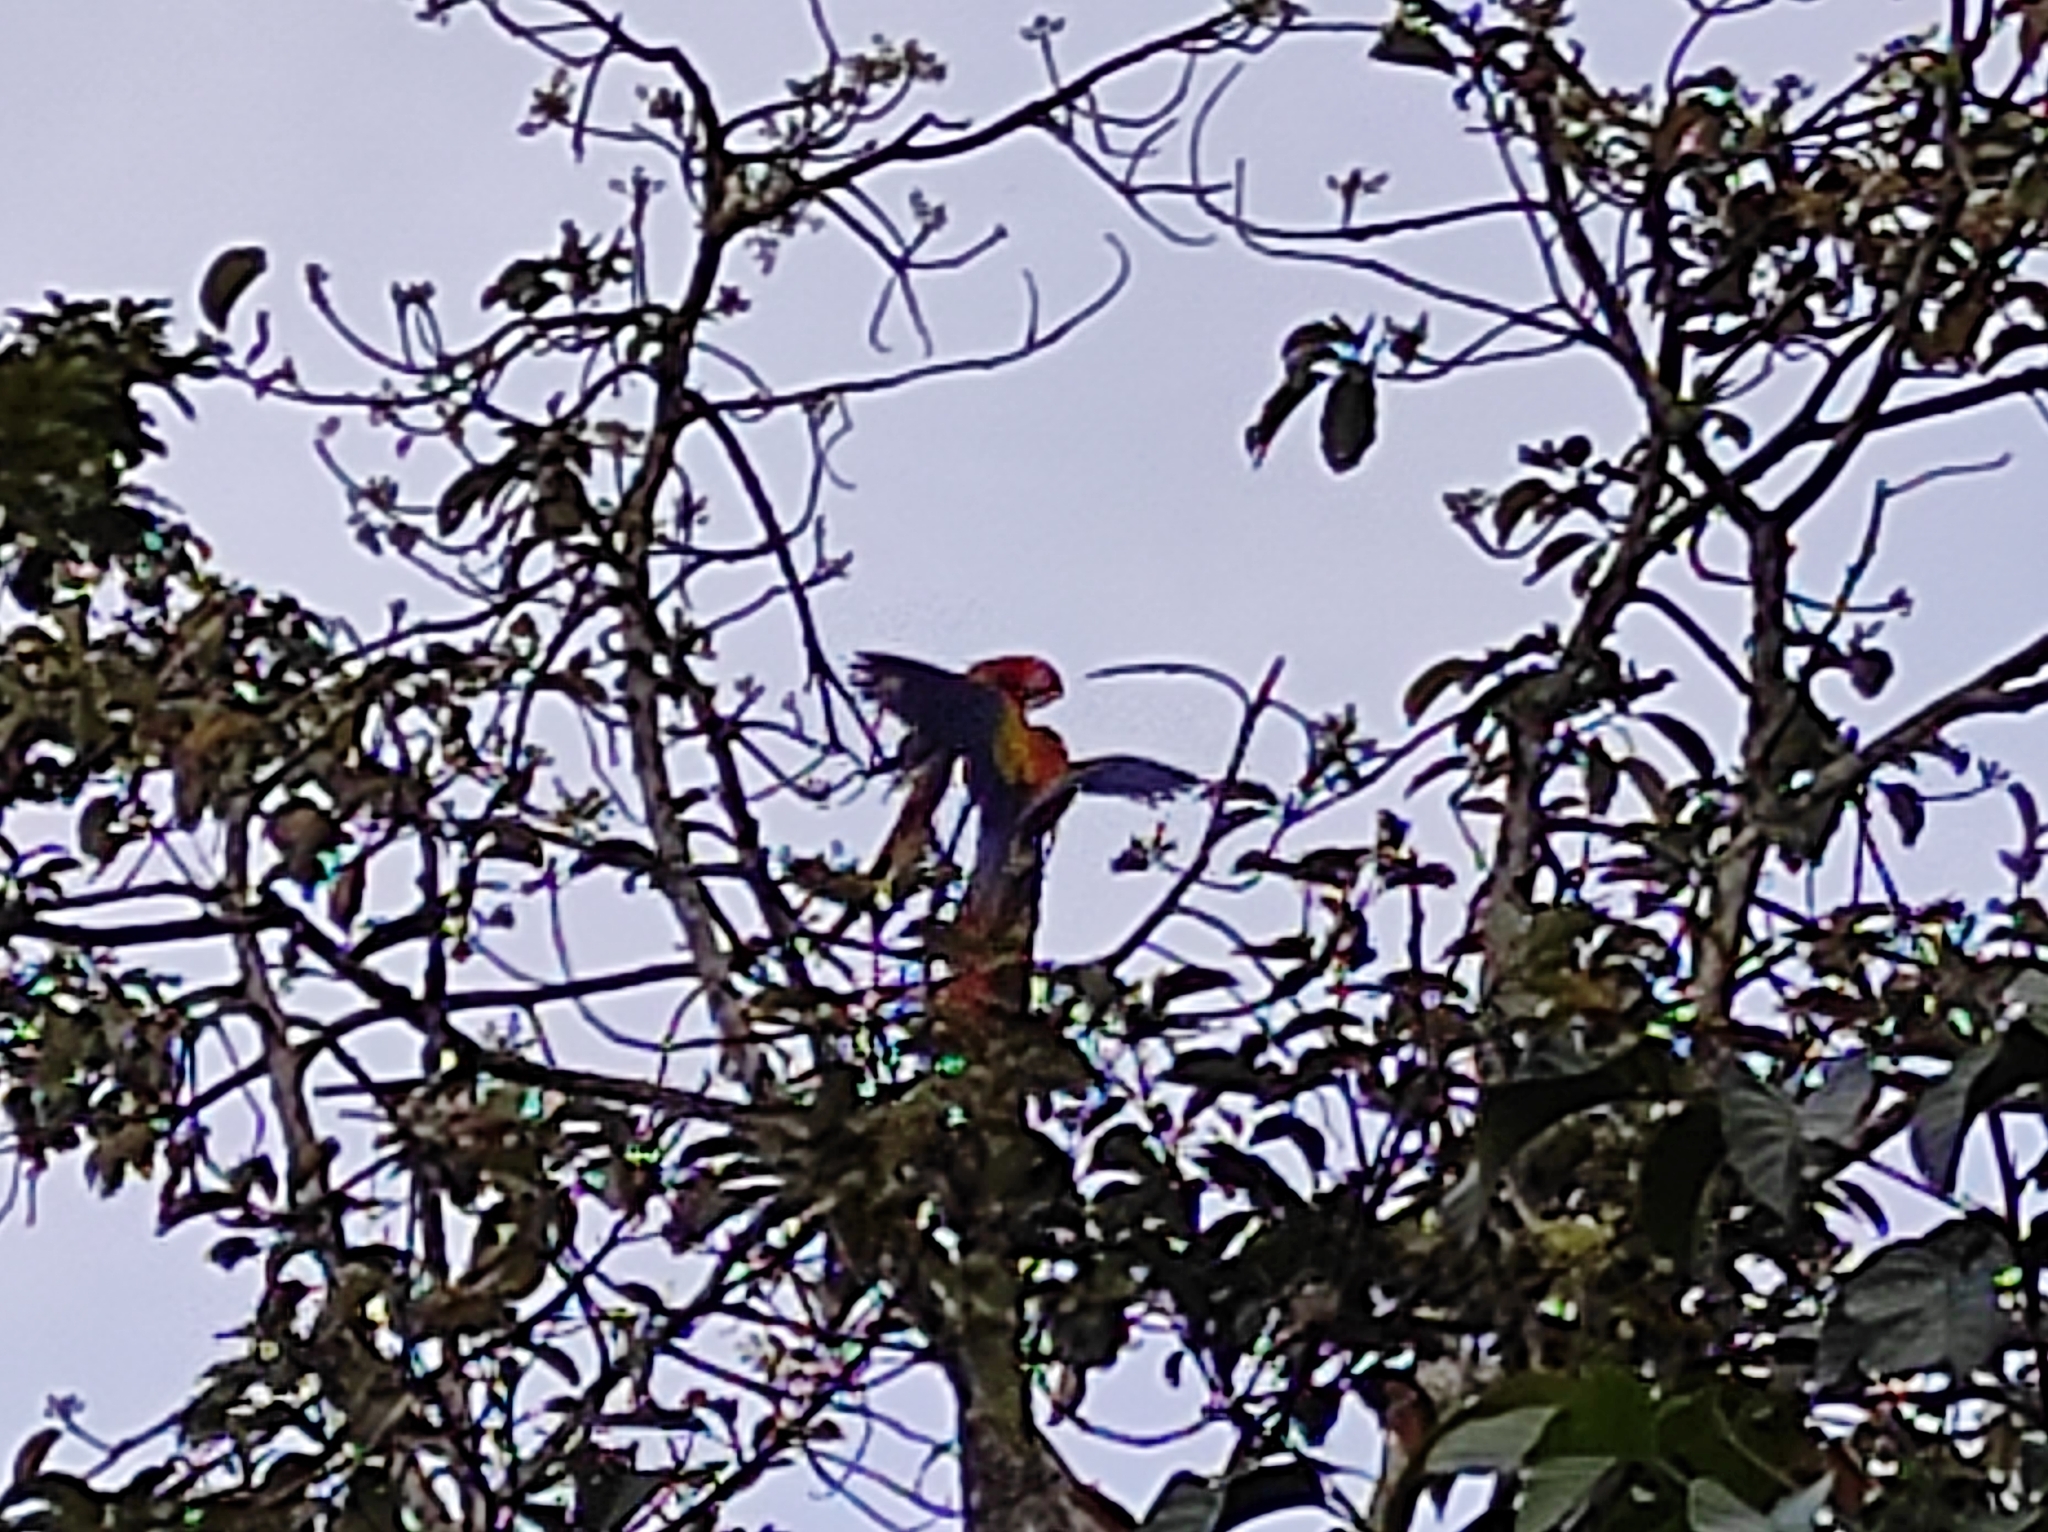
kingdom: Animalia
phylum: Chordata
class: Aves
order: Psittaciformes
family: Psittacidae
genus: Ara
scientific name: Ara macao
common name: Scarlet macaw
